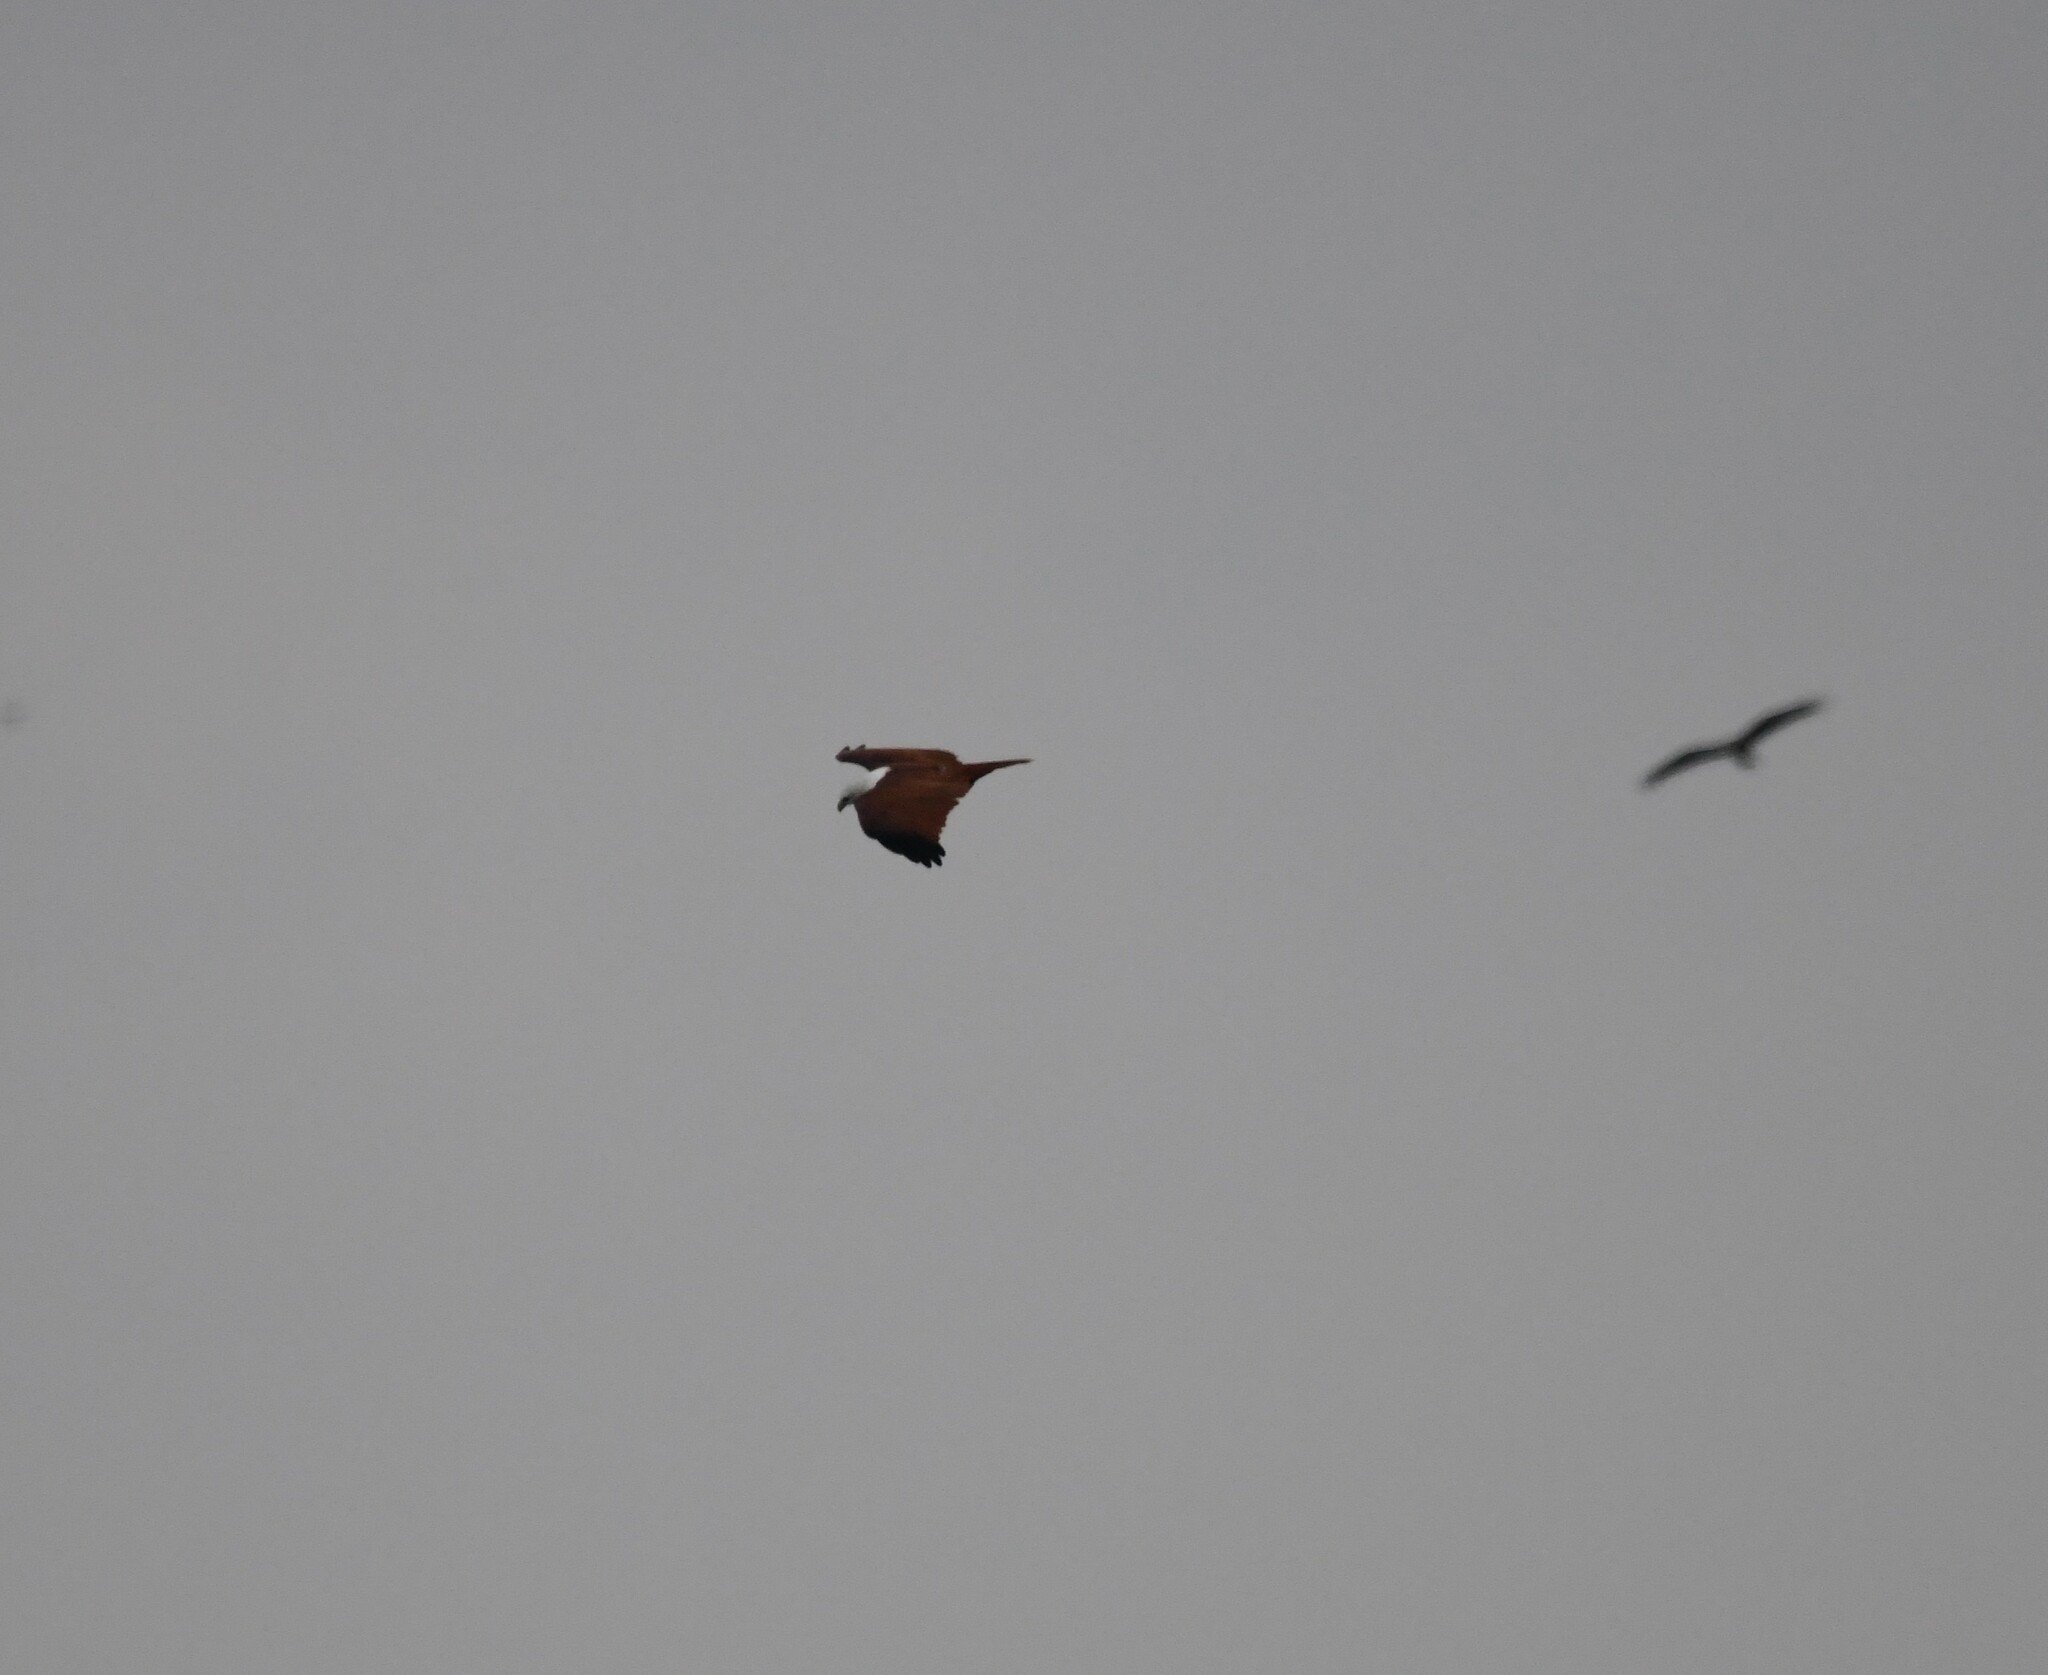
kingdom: Animalia
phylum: Chordata
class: Aves
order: Accipitriformes
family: Accipitridae
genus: Haliastur
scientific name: Haliastur indus
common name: Brahminy kite
